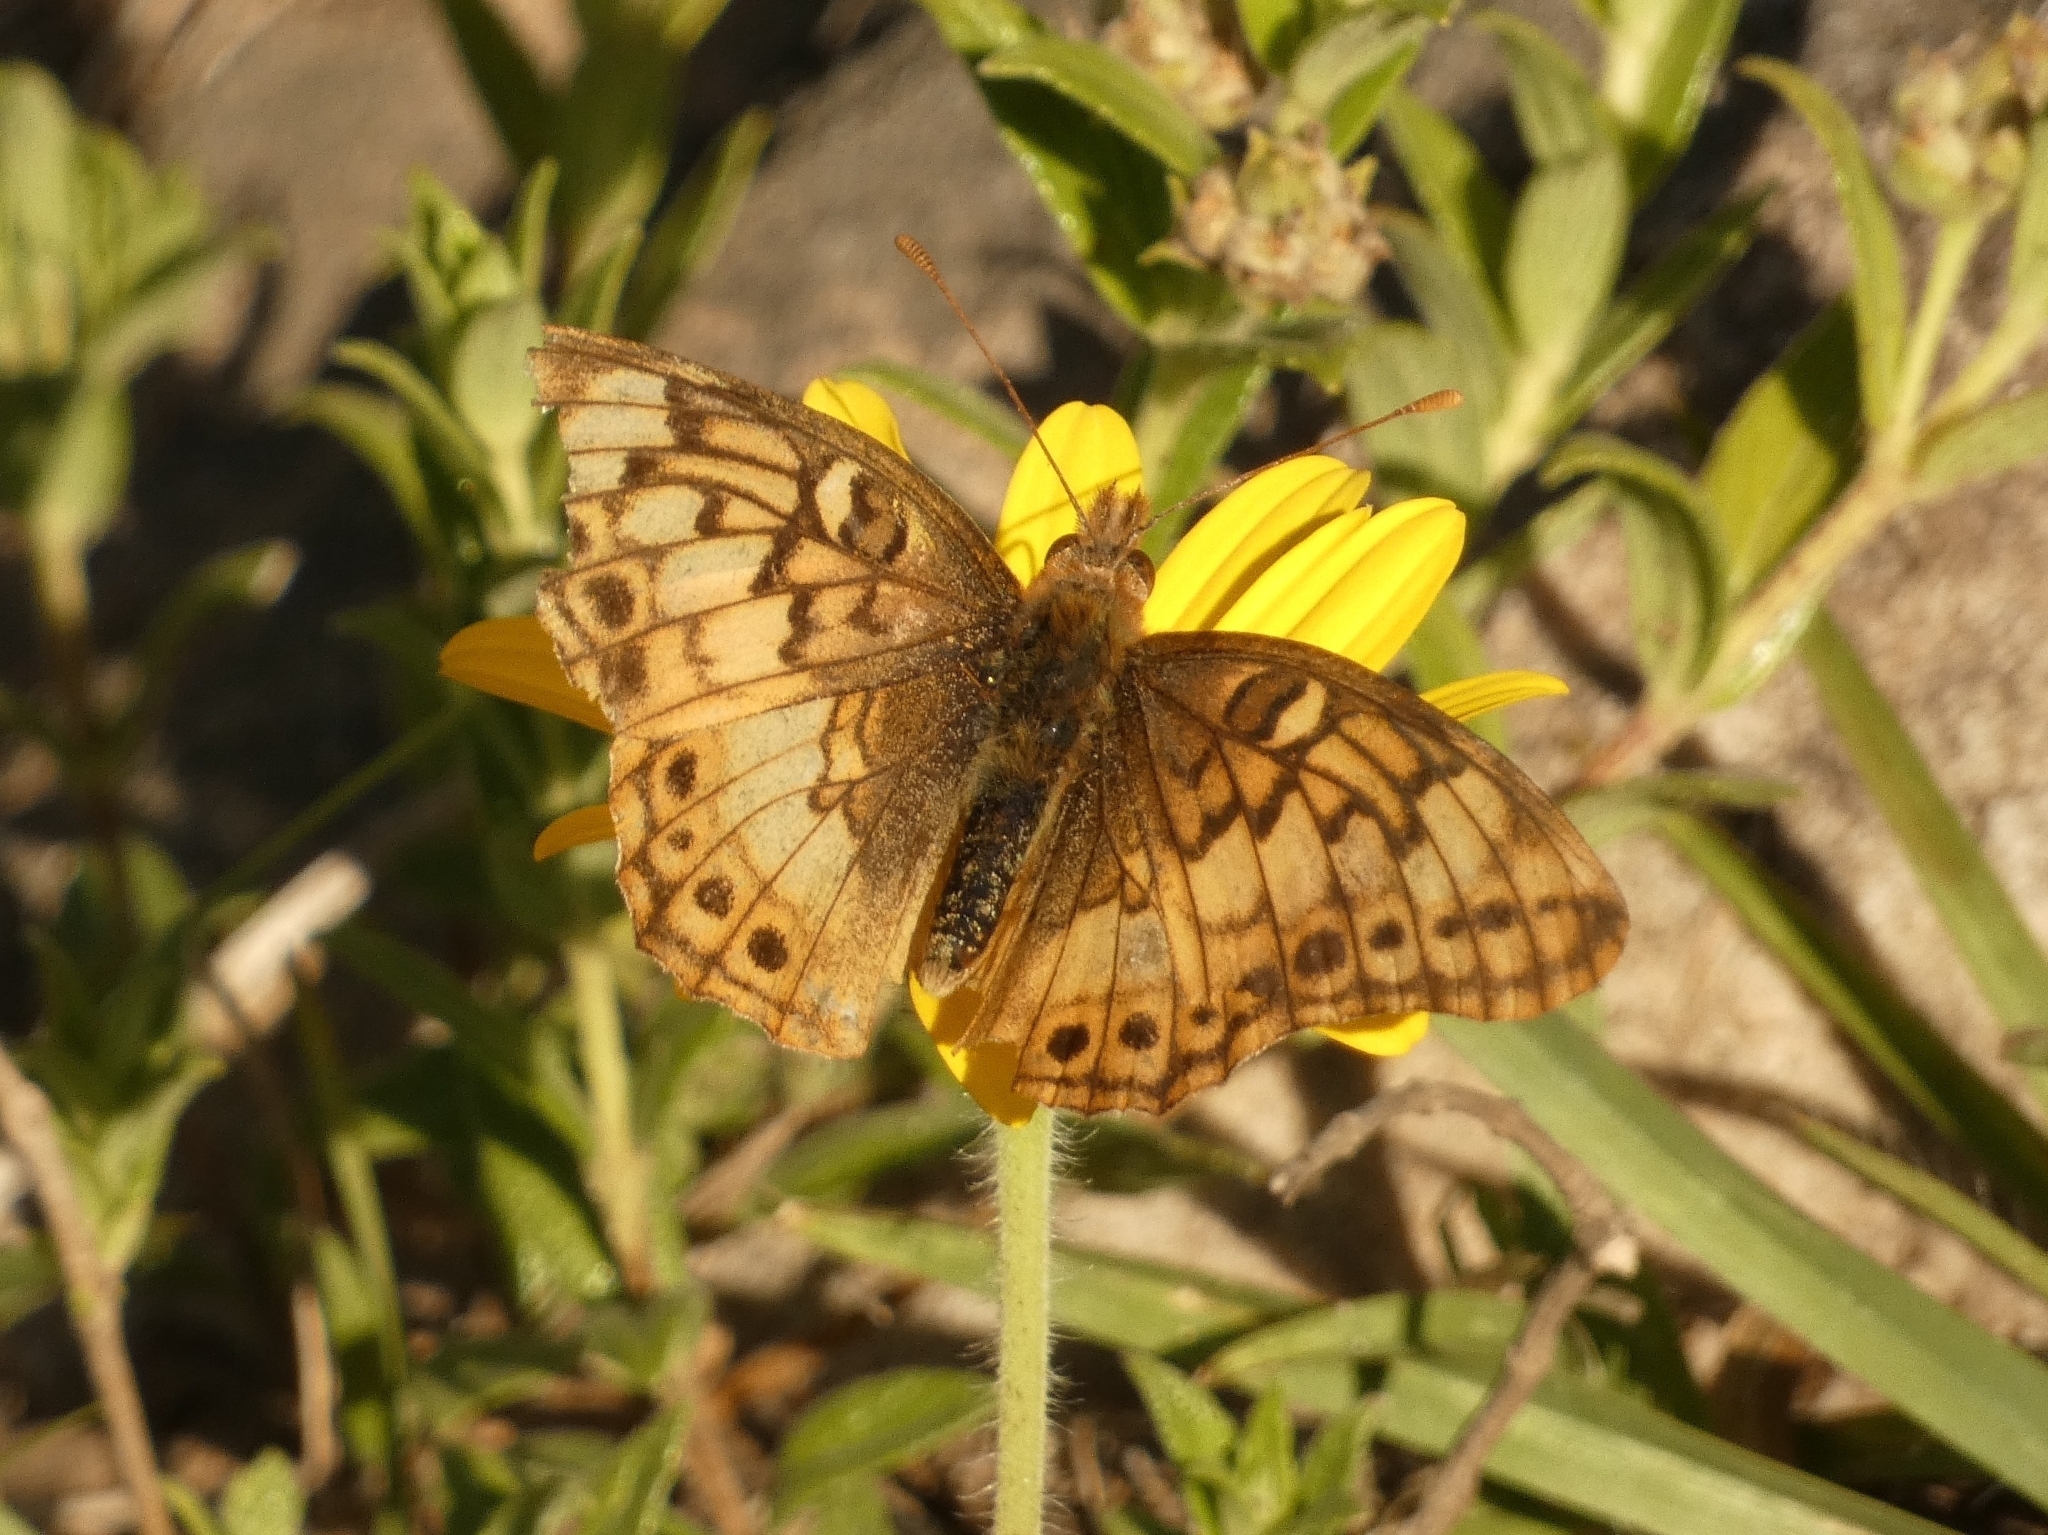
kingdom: Animalia
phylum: Arthropoda
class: Insecta
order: Lepidoptera
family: Nymphalidae
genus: Euptoieta
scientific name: Euptoieta hortensia
